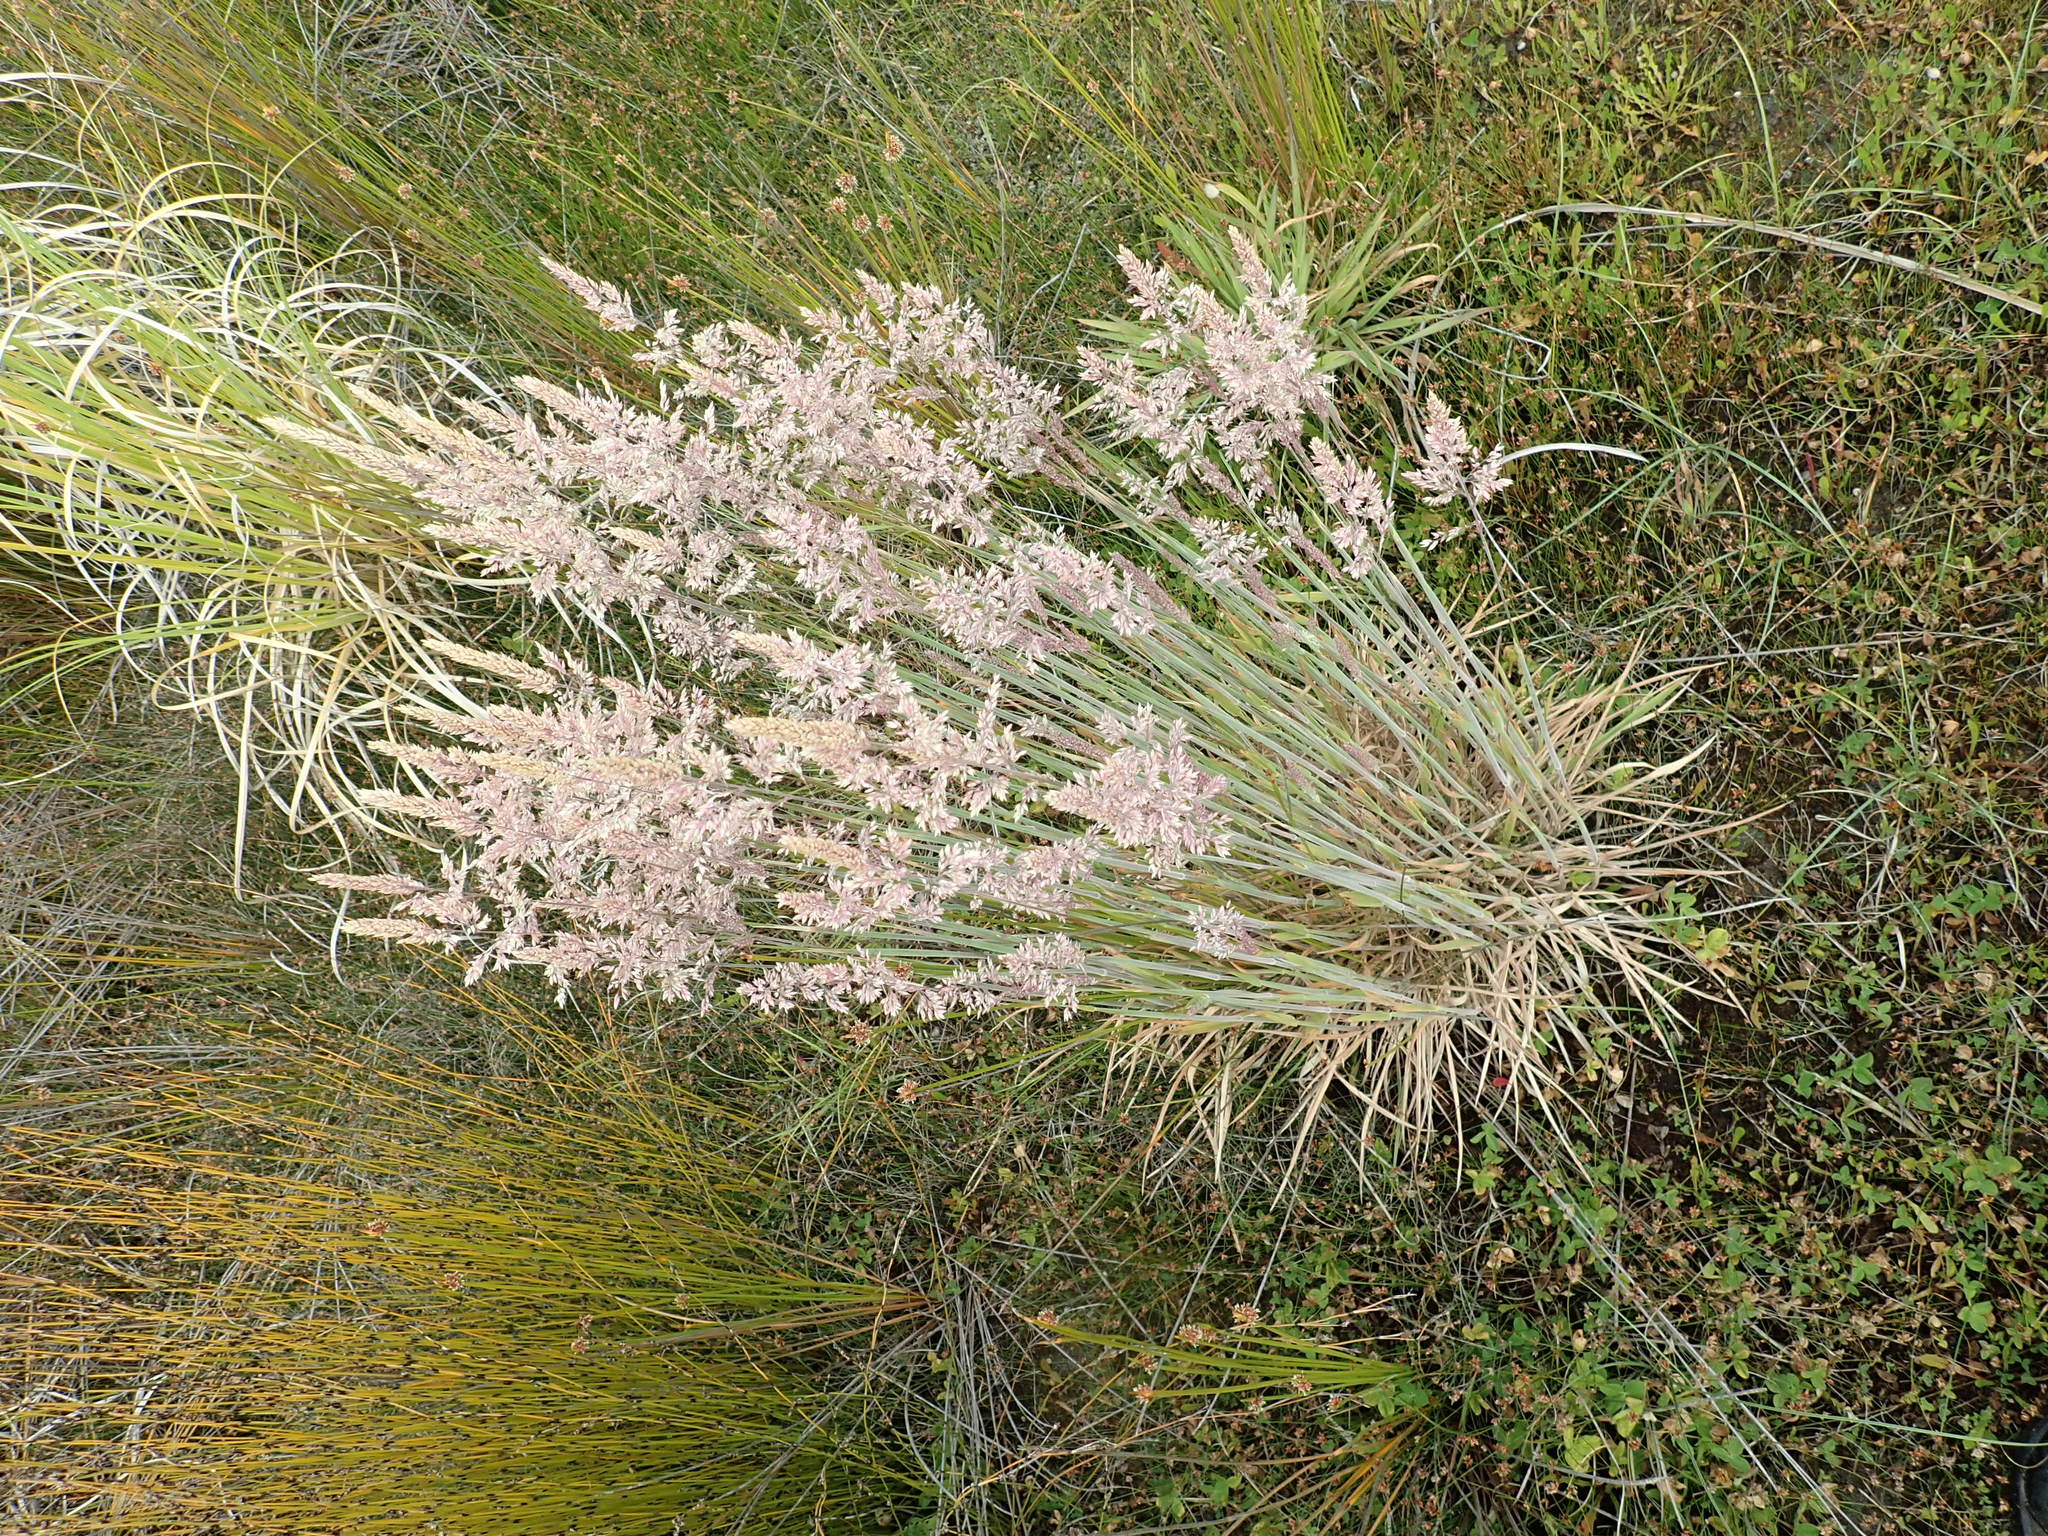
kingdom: Plantae
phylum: Tracheophyta
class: Liliopsida
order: Poales
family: Poaceae
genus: Holcus
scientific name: Holcus lanatus
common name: Yorkshire-fog
